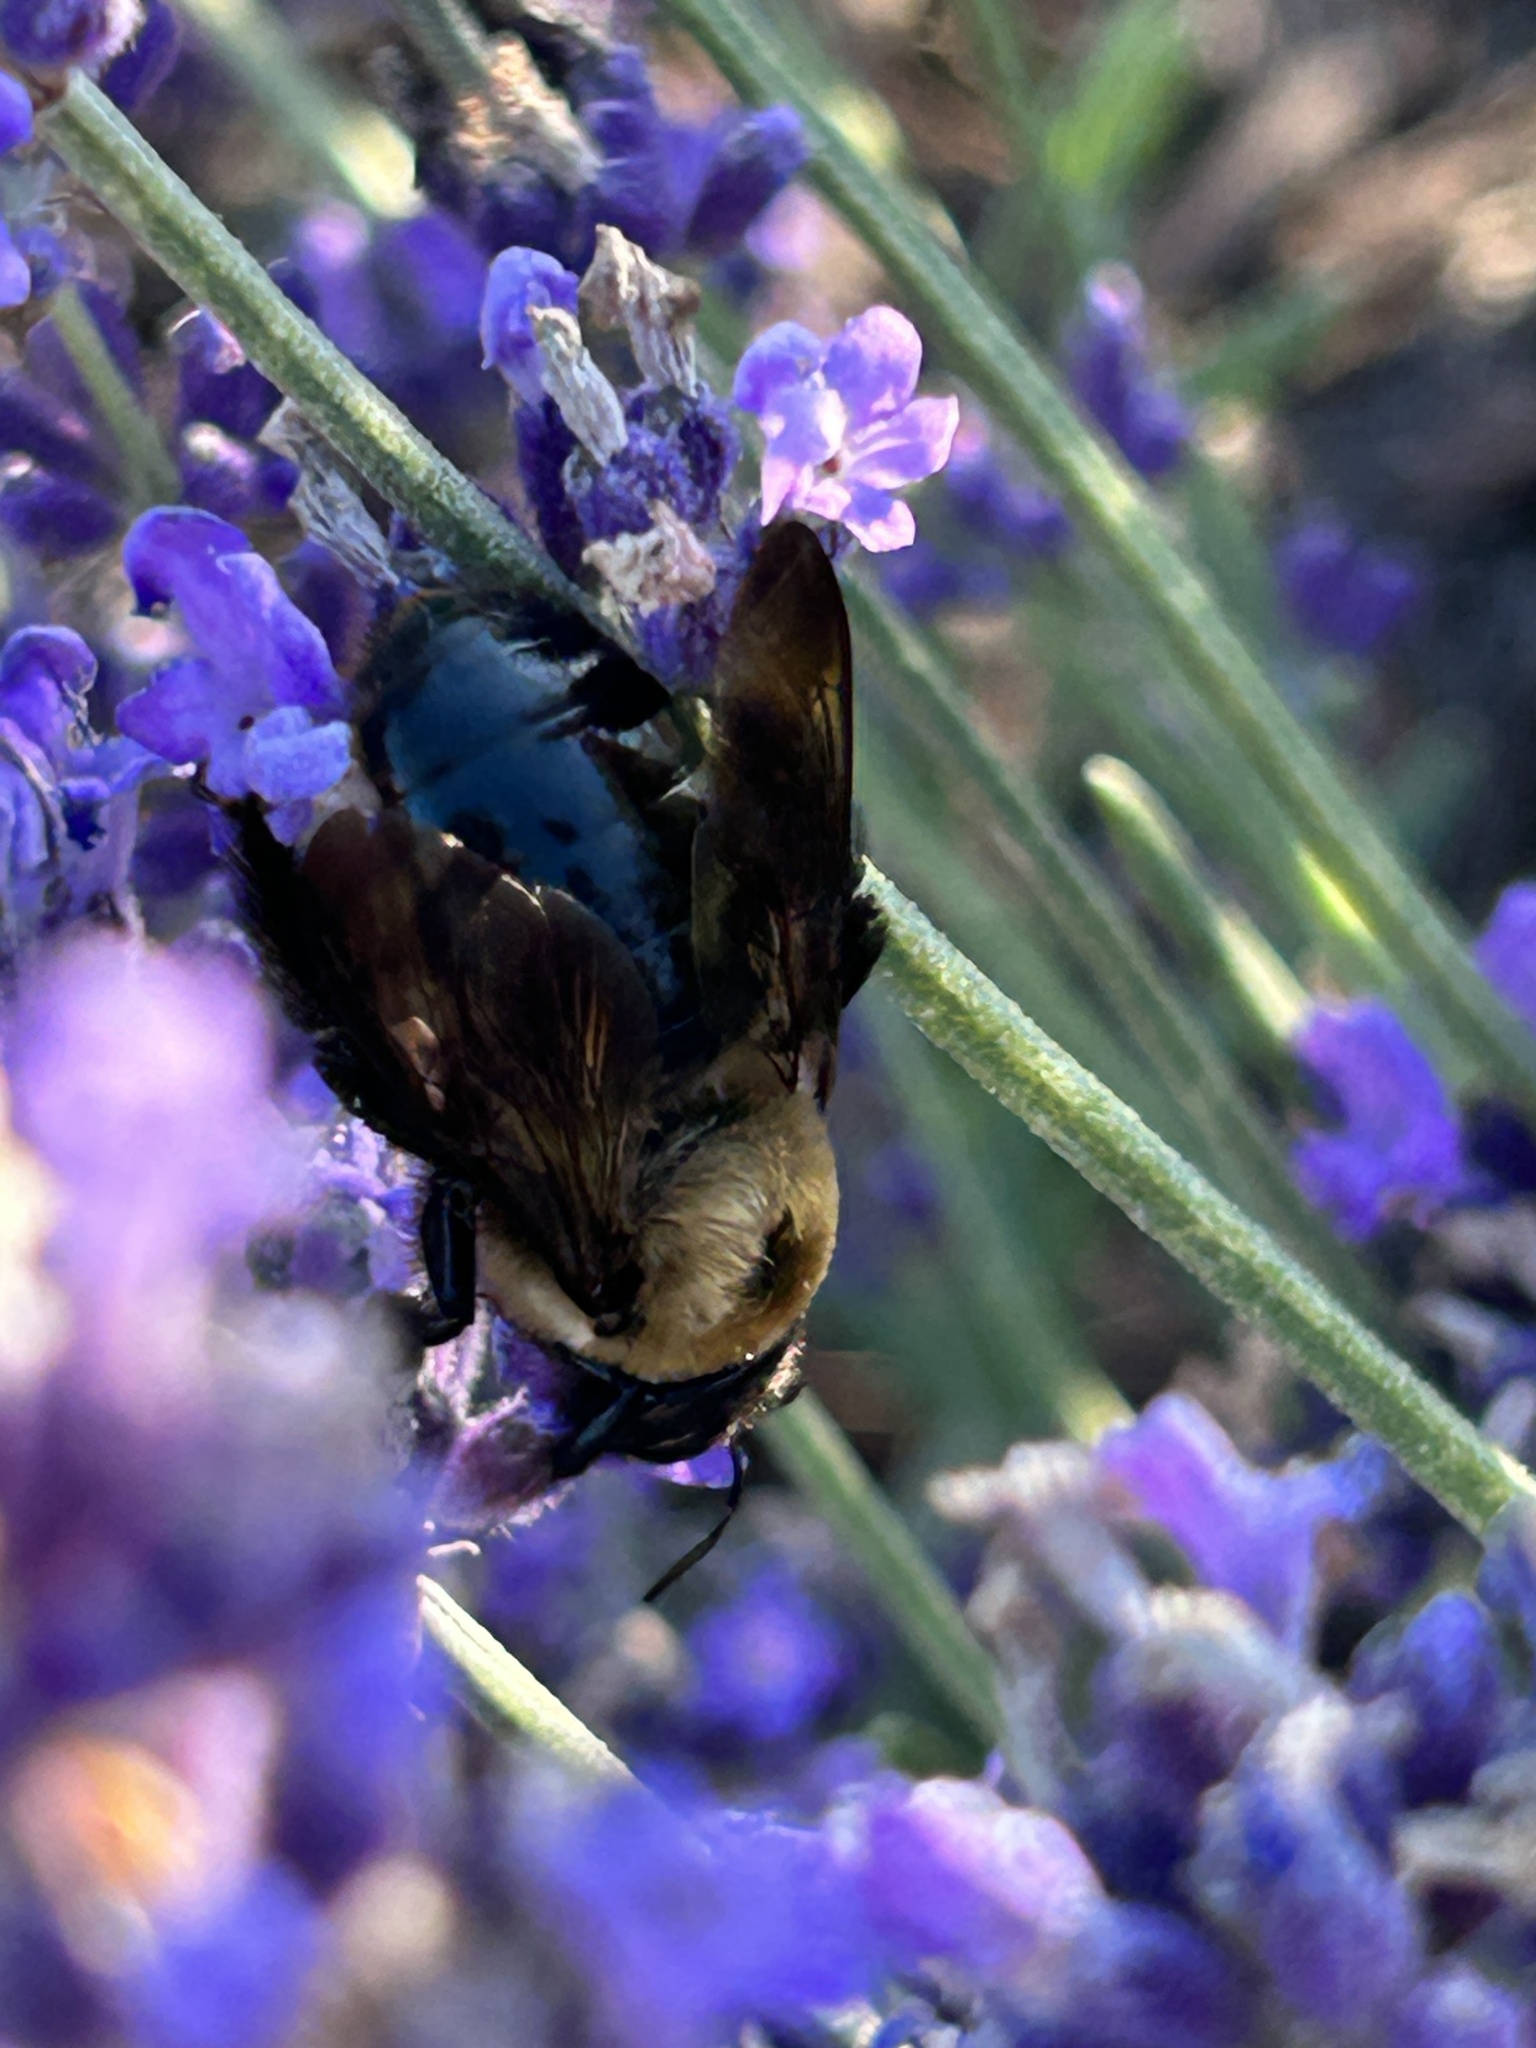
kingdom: Animalia
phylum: Arthropoda
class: Insecta
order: Hymenoptera
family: Apidae
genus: Xylocopa
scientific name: Xylocopa virginica
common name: Carpenter bee
